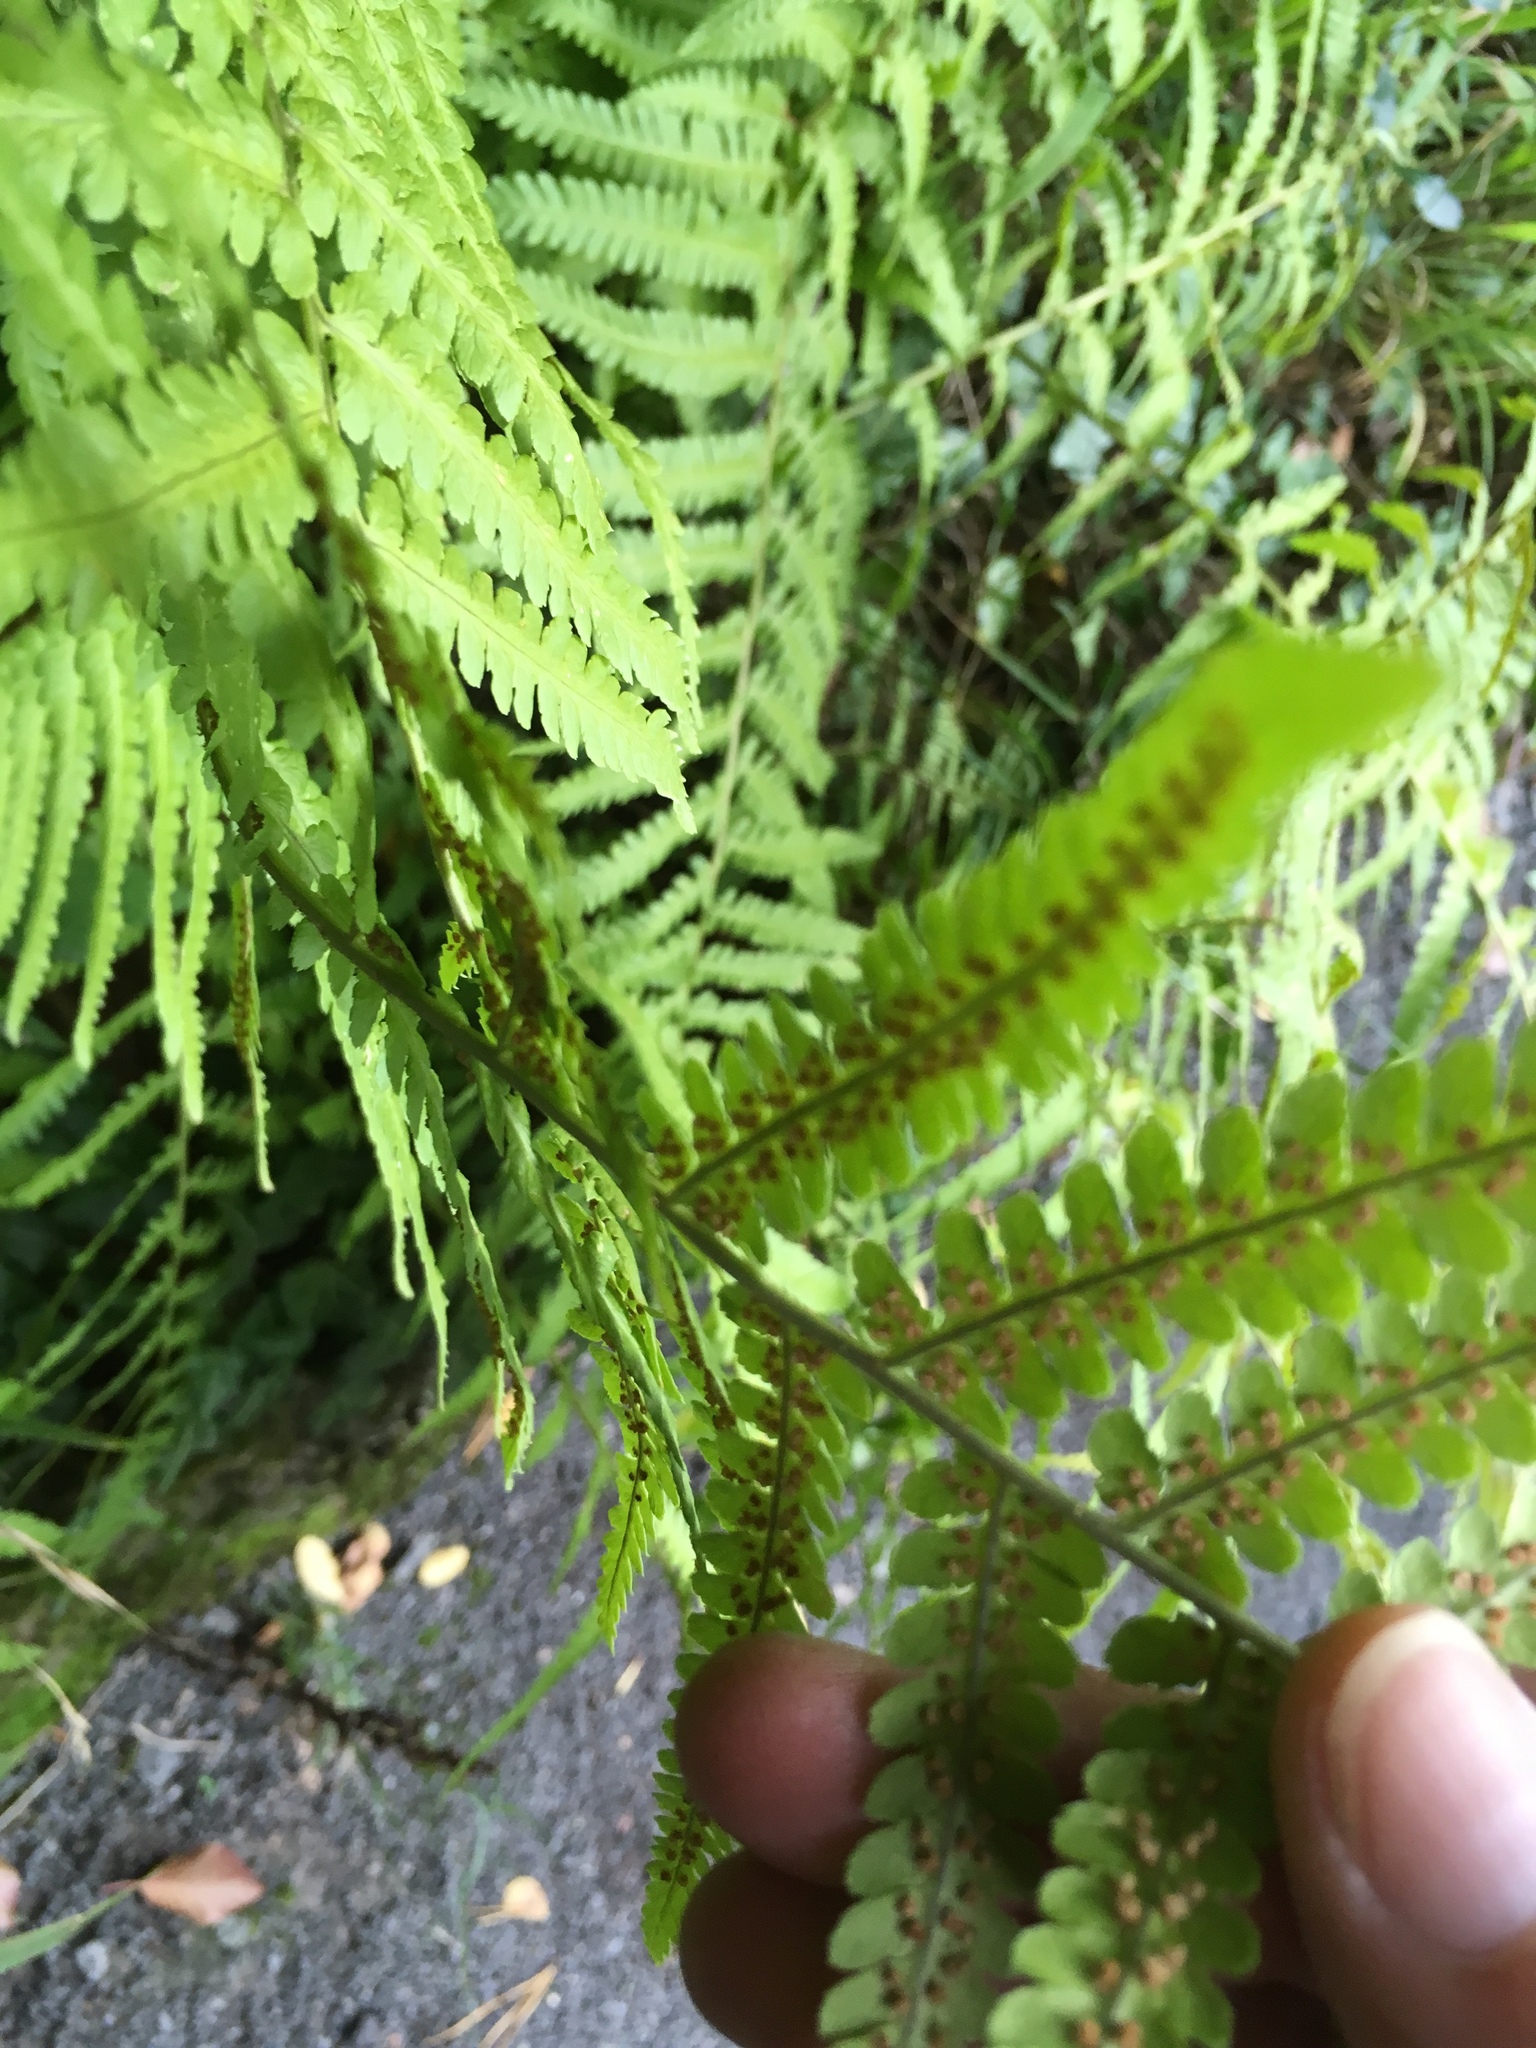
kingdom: Plantae
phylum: Tracheophyta
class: Polypodiopsida
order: Polypodiales
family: Dryopteridaceae
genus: Dryopteris
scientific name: Dryopteris filix-mas
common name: Male fern
